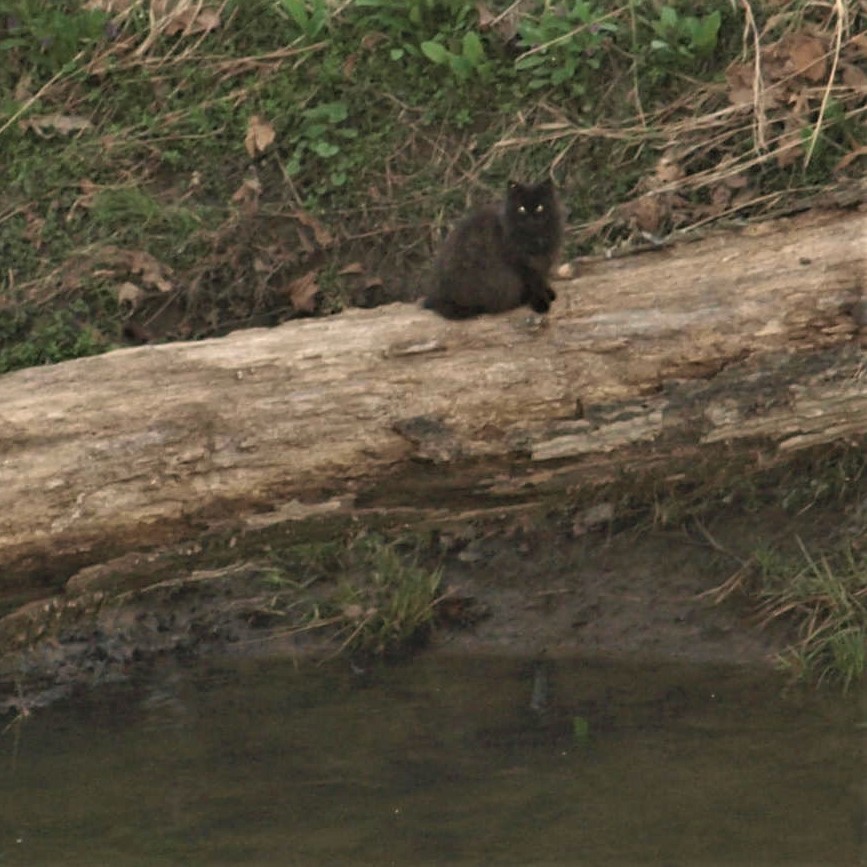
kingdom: Animalia
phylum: Chordata
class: Mammalia
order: Carnivora
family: Felidae
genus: Felis
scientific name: Felis catus
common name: Domestic cat
